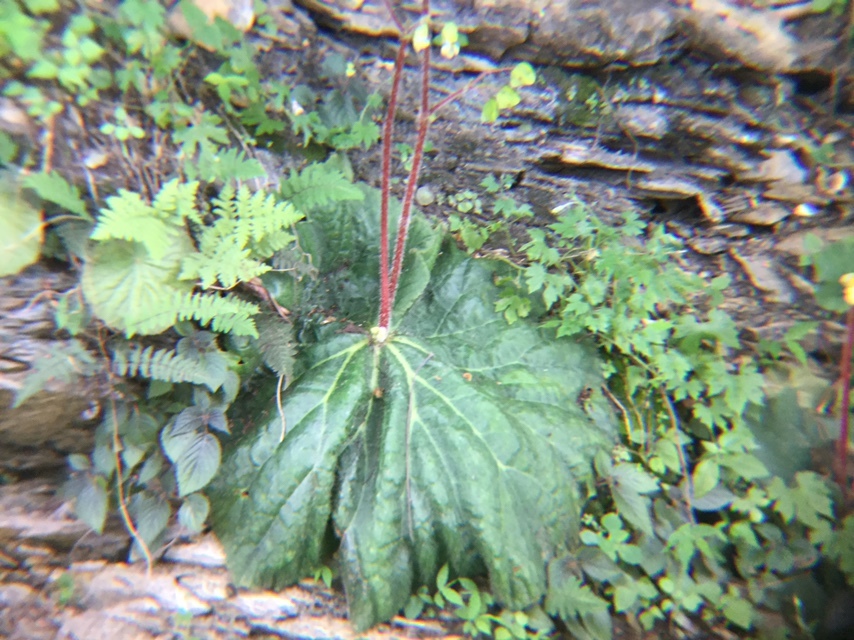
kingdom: Plantae
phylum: Tracheophyta
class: Magnoliopsida
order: Cucurbitales
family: Begoniaceae
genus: Begonia
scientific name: Begonia monophylla
